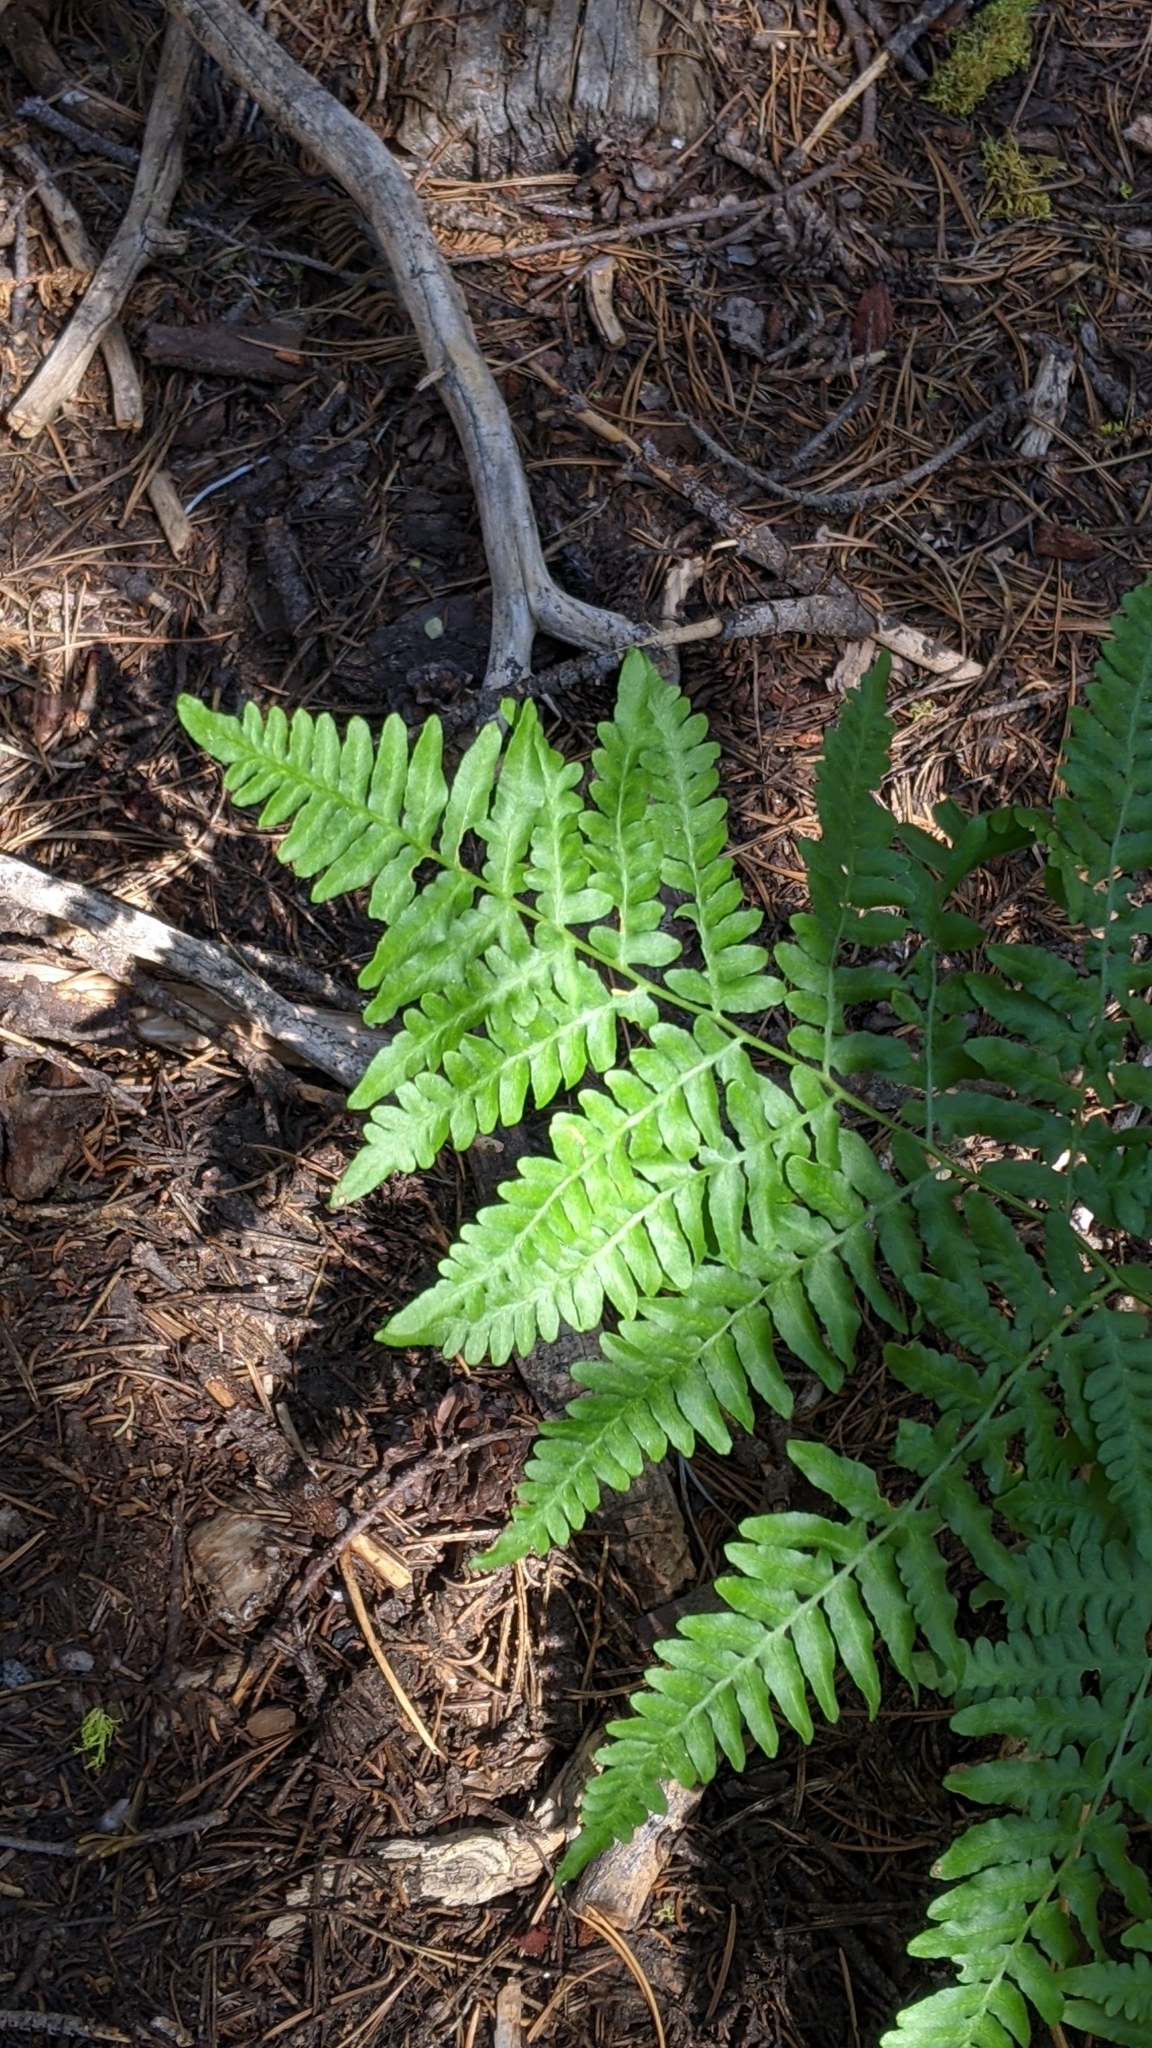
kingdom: Plantae
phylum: Tracheophyta
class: Polypodiopsida
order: Polypodiales
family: Dennstaedtiaceae
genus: Pteridium
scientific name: Pteridium aquilinum
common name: Bracken
